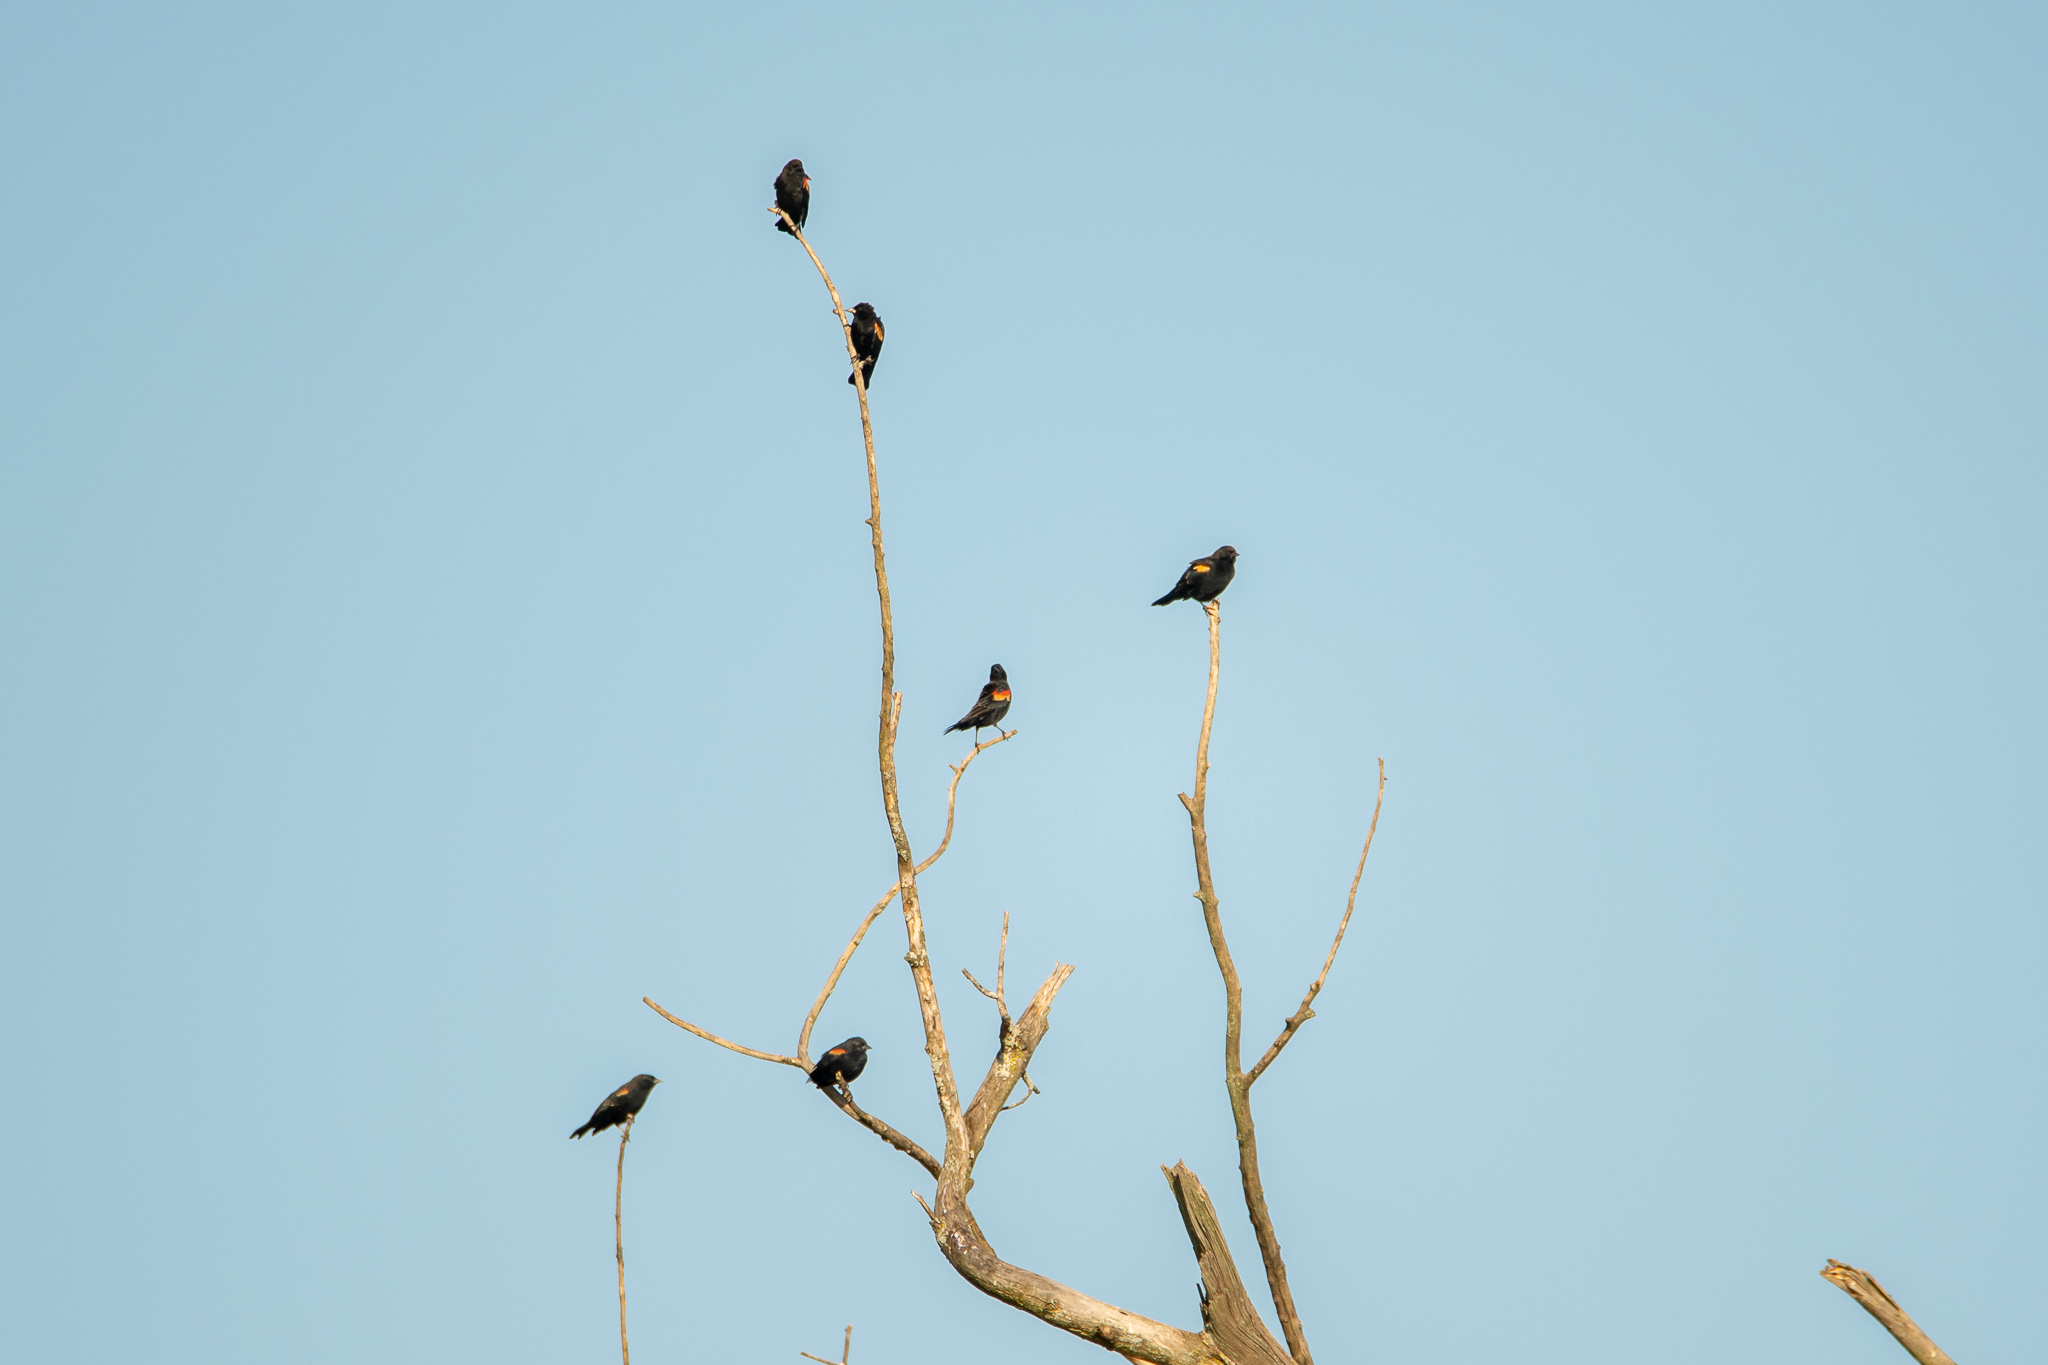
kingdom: Animalia
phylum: Chordata
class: Aves
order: Passeriformes
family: Icteridae
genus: Agelaius
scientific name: Agelaius phoeniceus
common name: Red-winged blackbird
